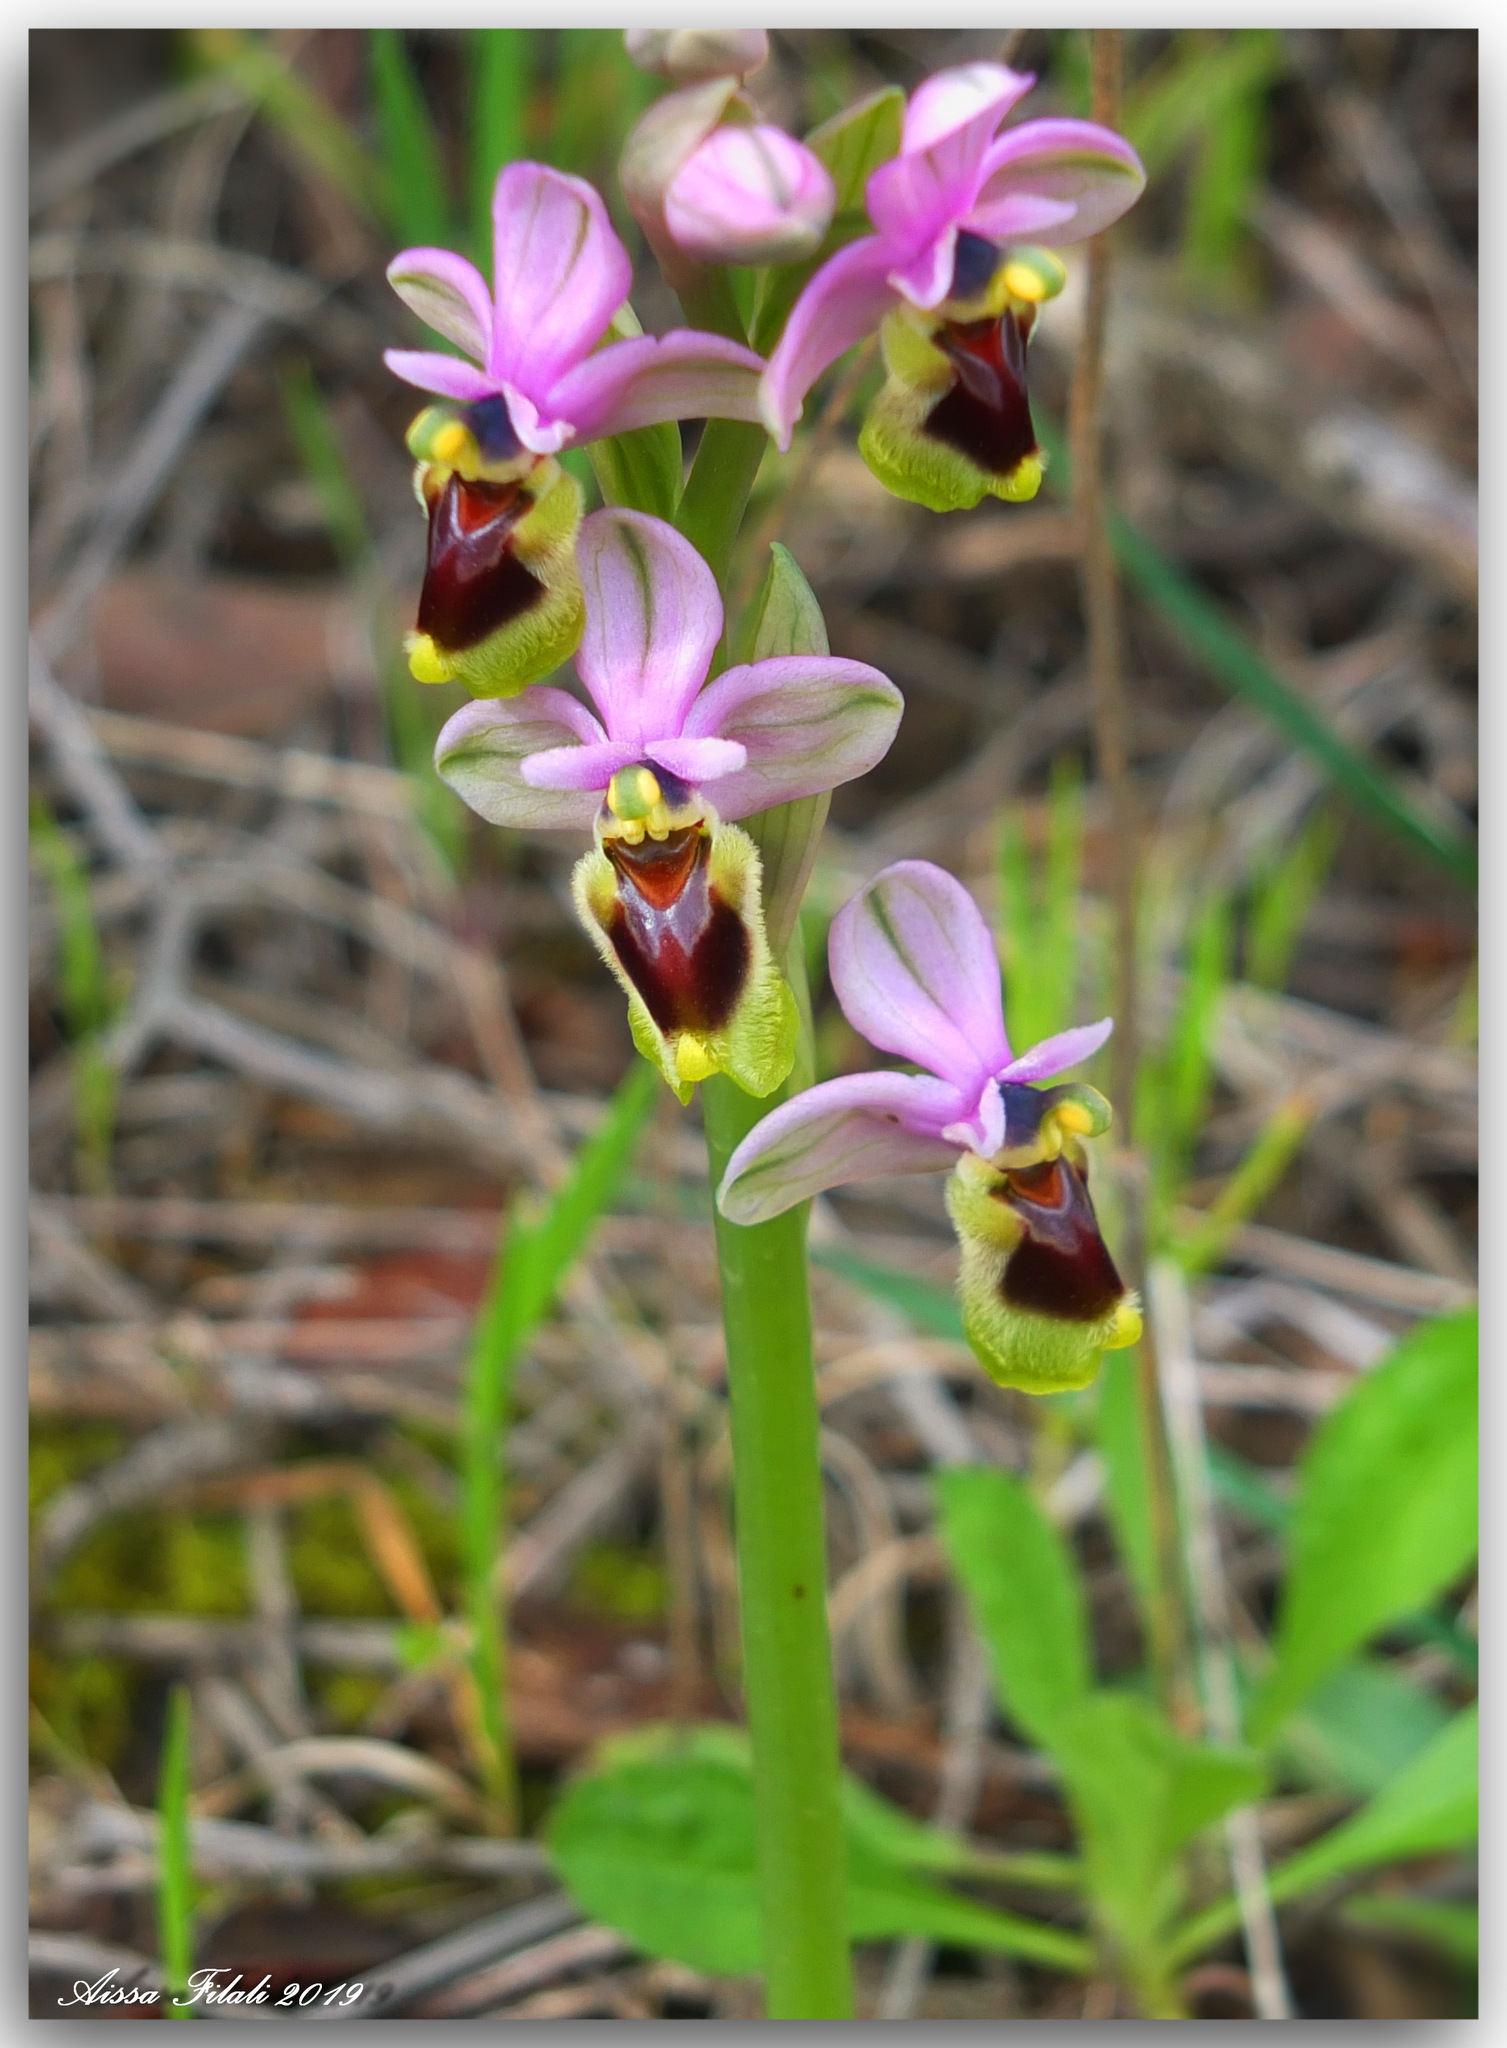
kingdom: Plantae
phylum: Tracheophyta
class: Liliopsida
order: Asparagales
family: Orchidaceae
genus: Ophrys
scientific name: Ophrys tenthredinifera
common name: Sawfly orchid
